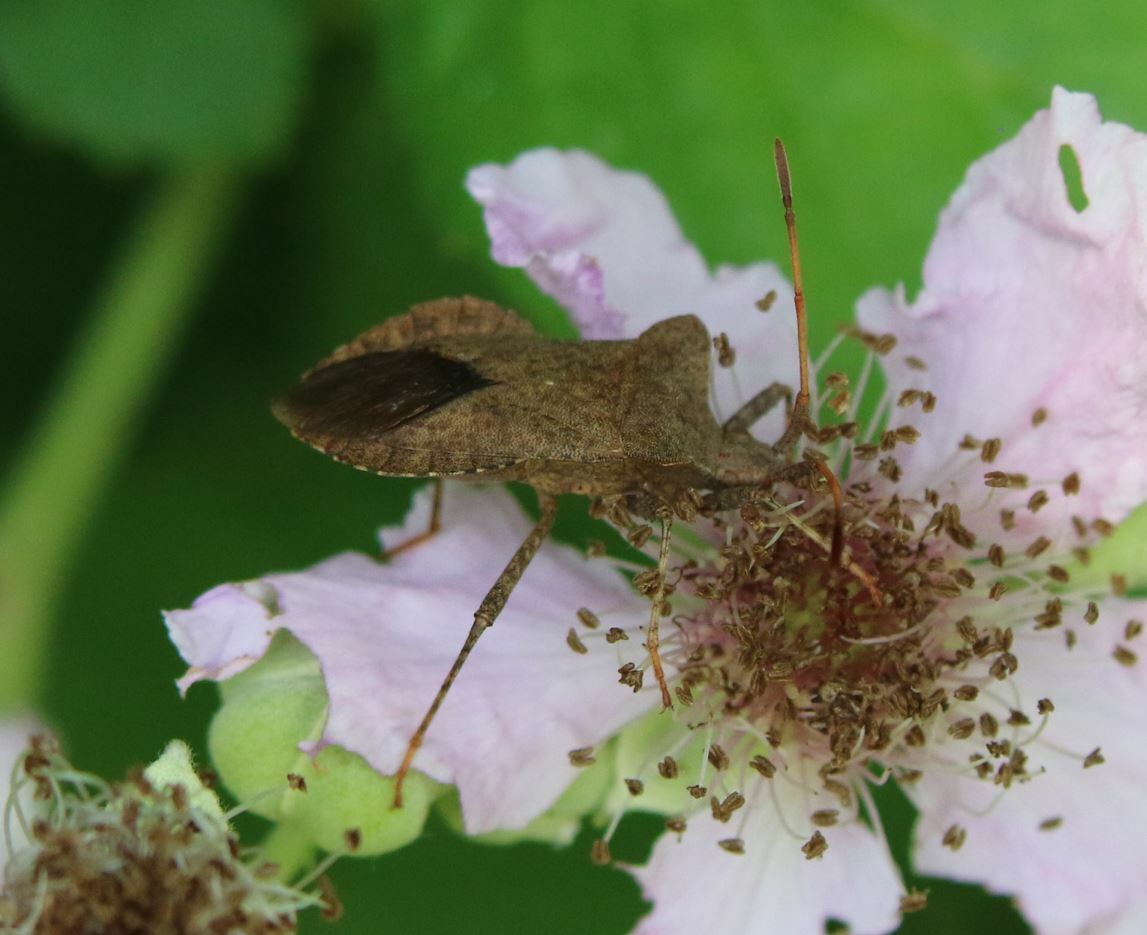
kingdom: Animalia
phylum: Arthropoda
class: Insecta
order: Hemiptera
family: Coreidae
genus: Coreus
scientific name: Coreus marginatus
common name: Dock bug
